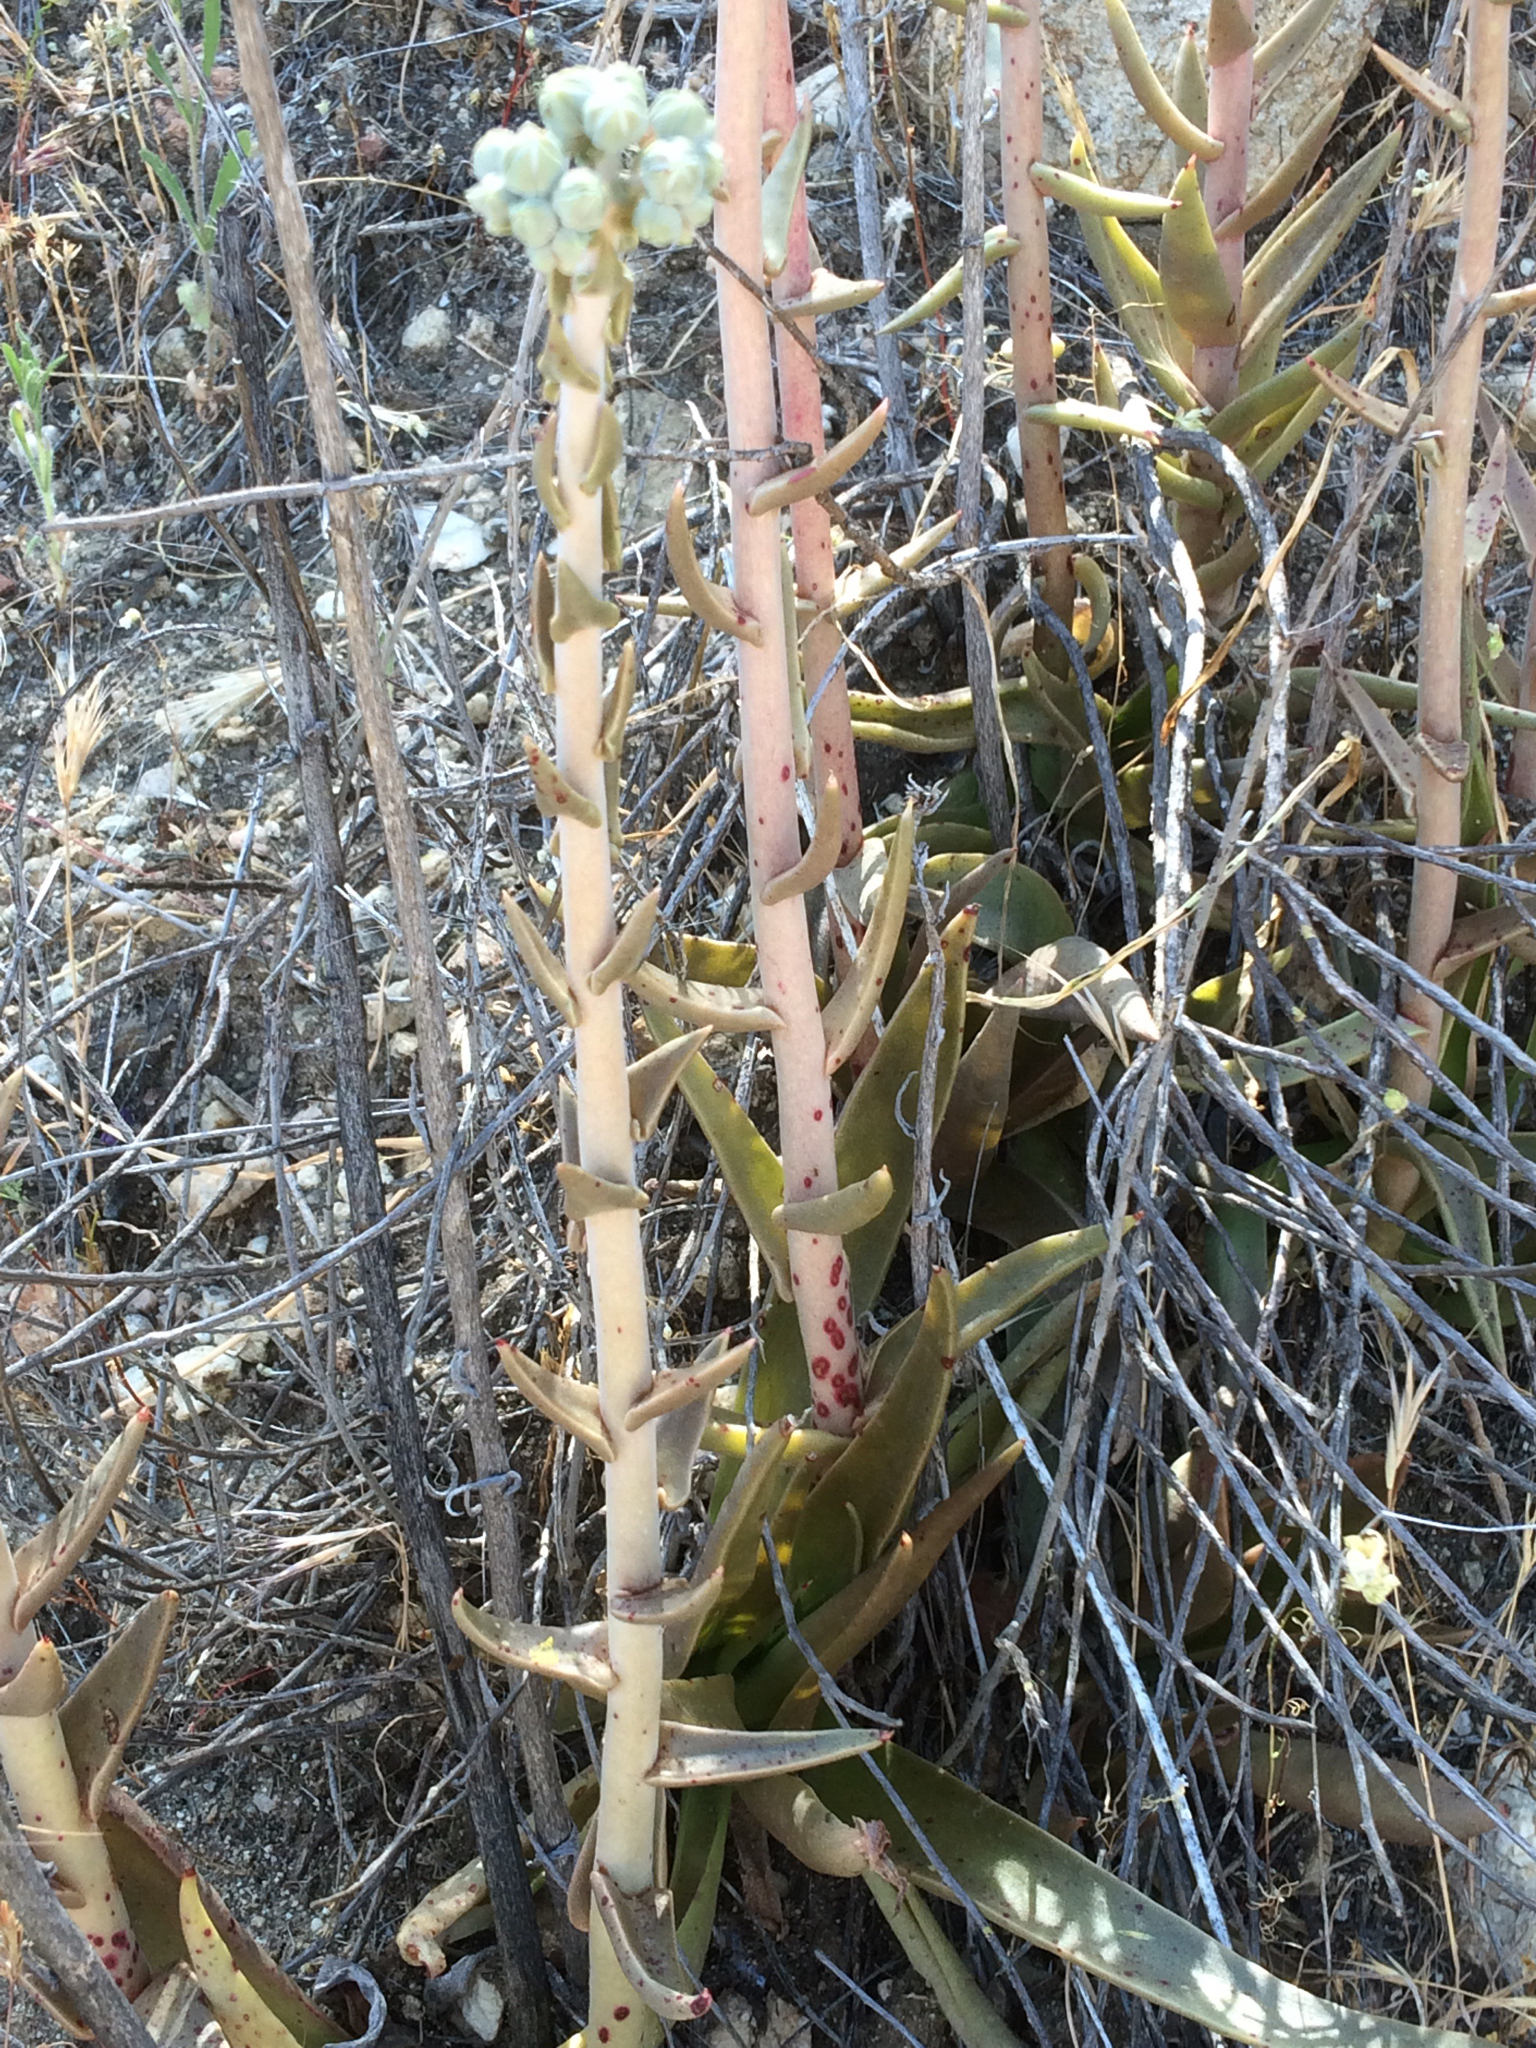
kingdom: Plantae
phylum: Tracheophyta
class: Magnoliopsida
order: Saxifragales
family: Crassulaceae
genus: Dudleya
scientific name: Dudleya lanceolata
